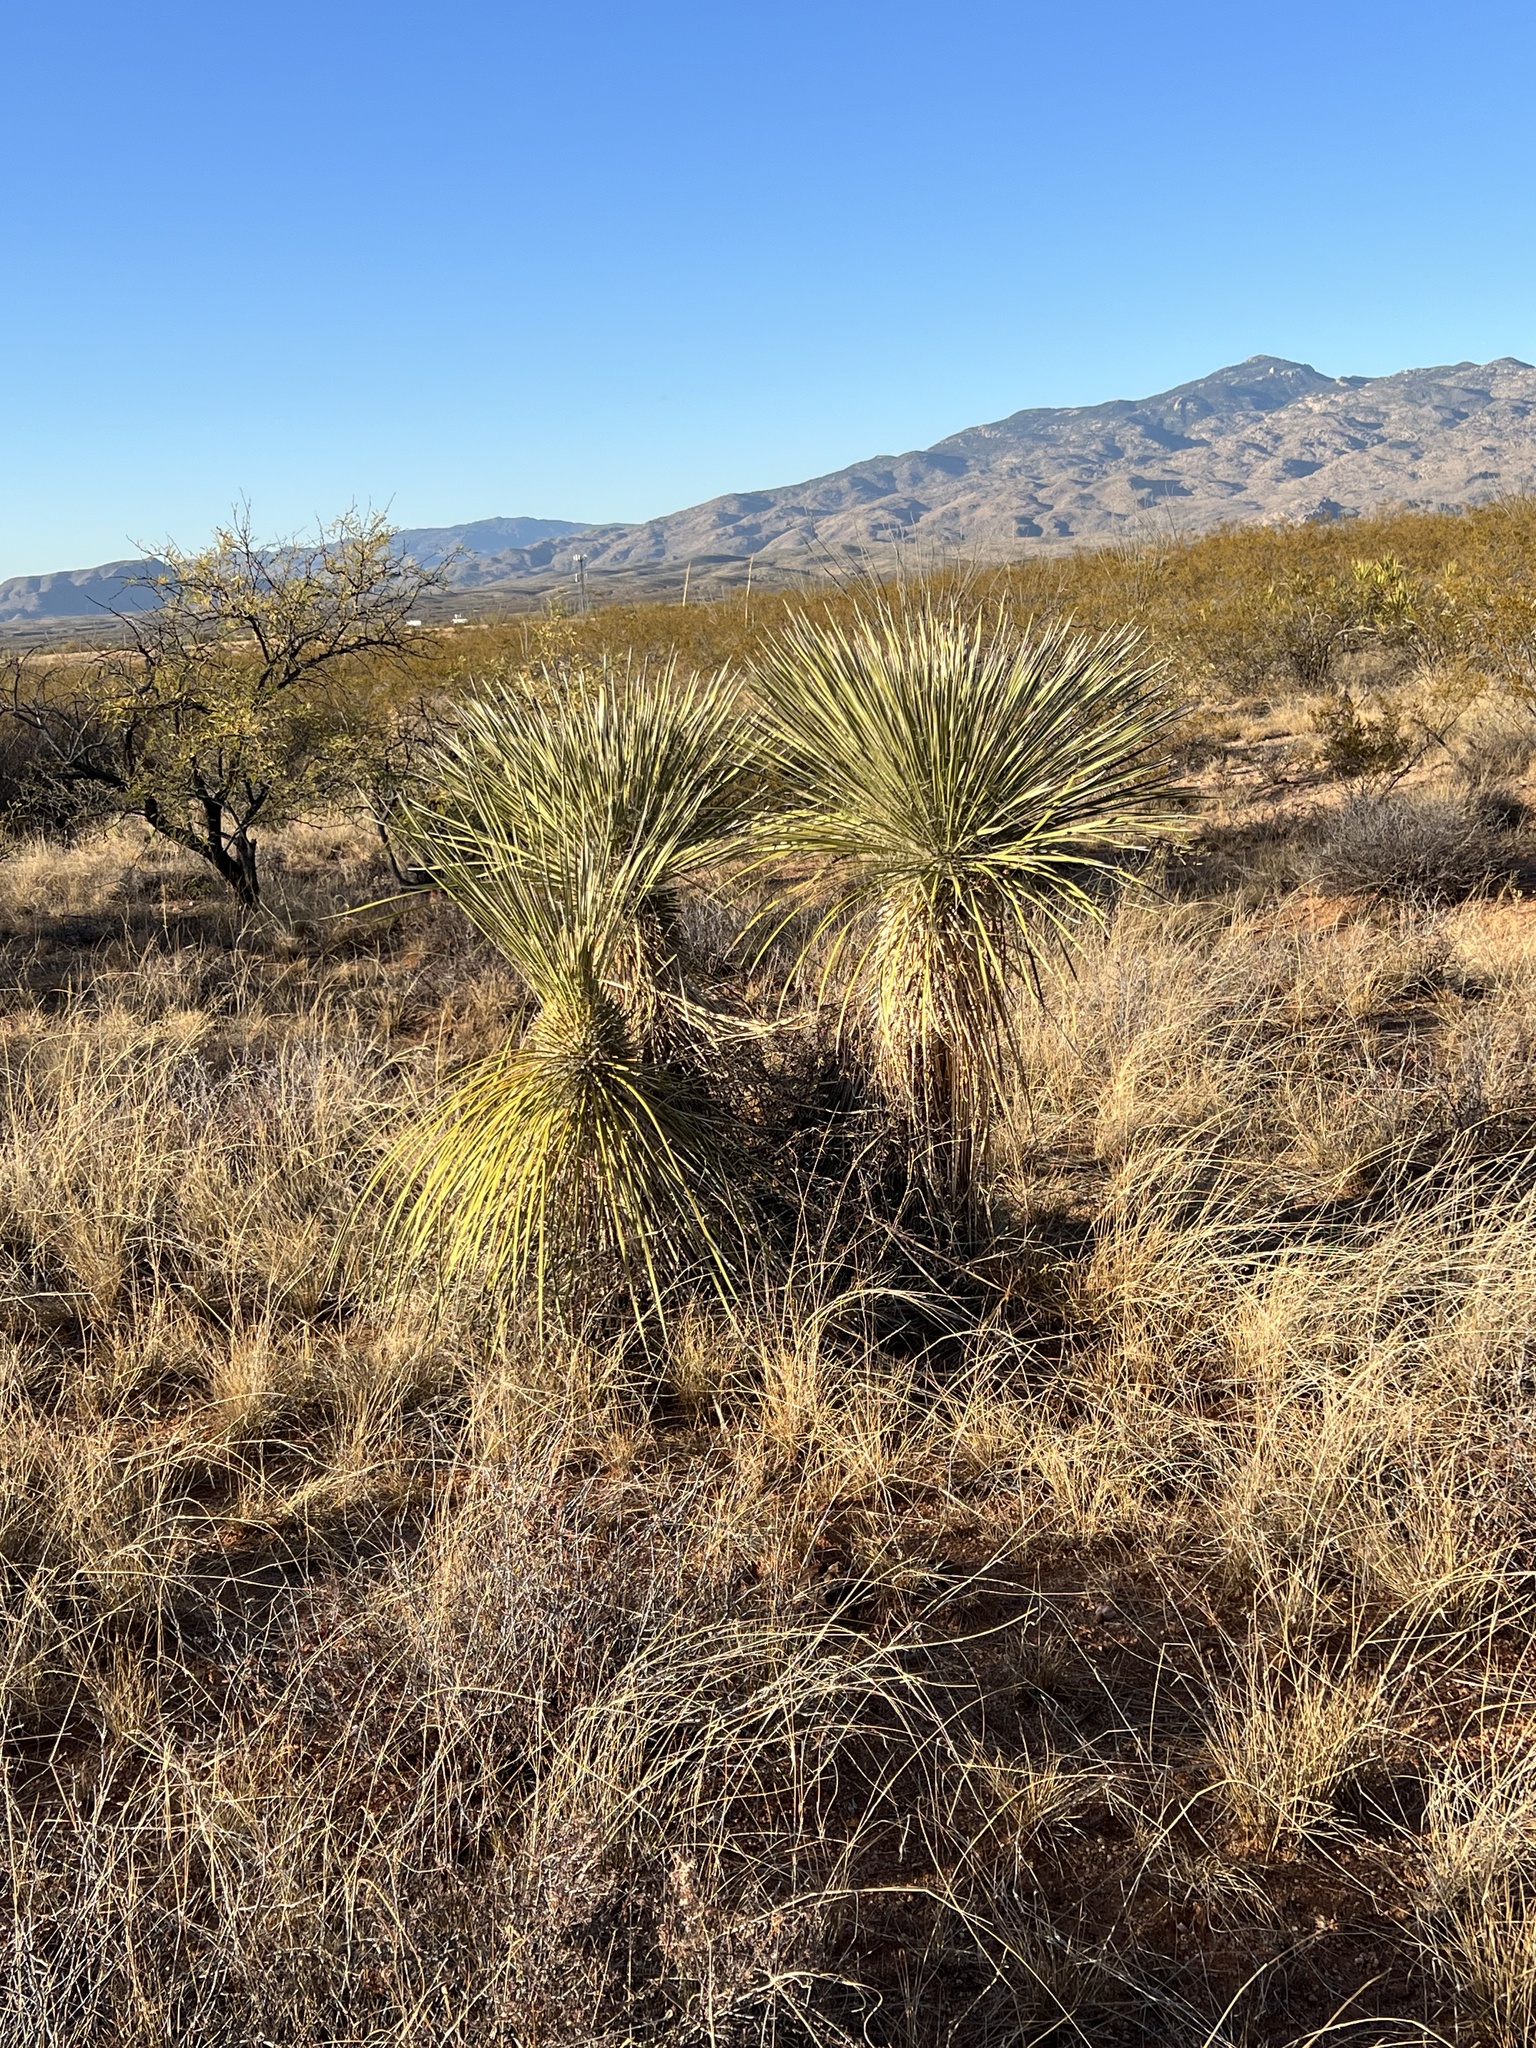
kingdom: Plantae
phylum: Tracheophyta
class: Liliopsida
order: Asparagales
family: Asparagaceae
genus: Yucca
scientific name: Yucca elata
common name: Palmella
